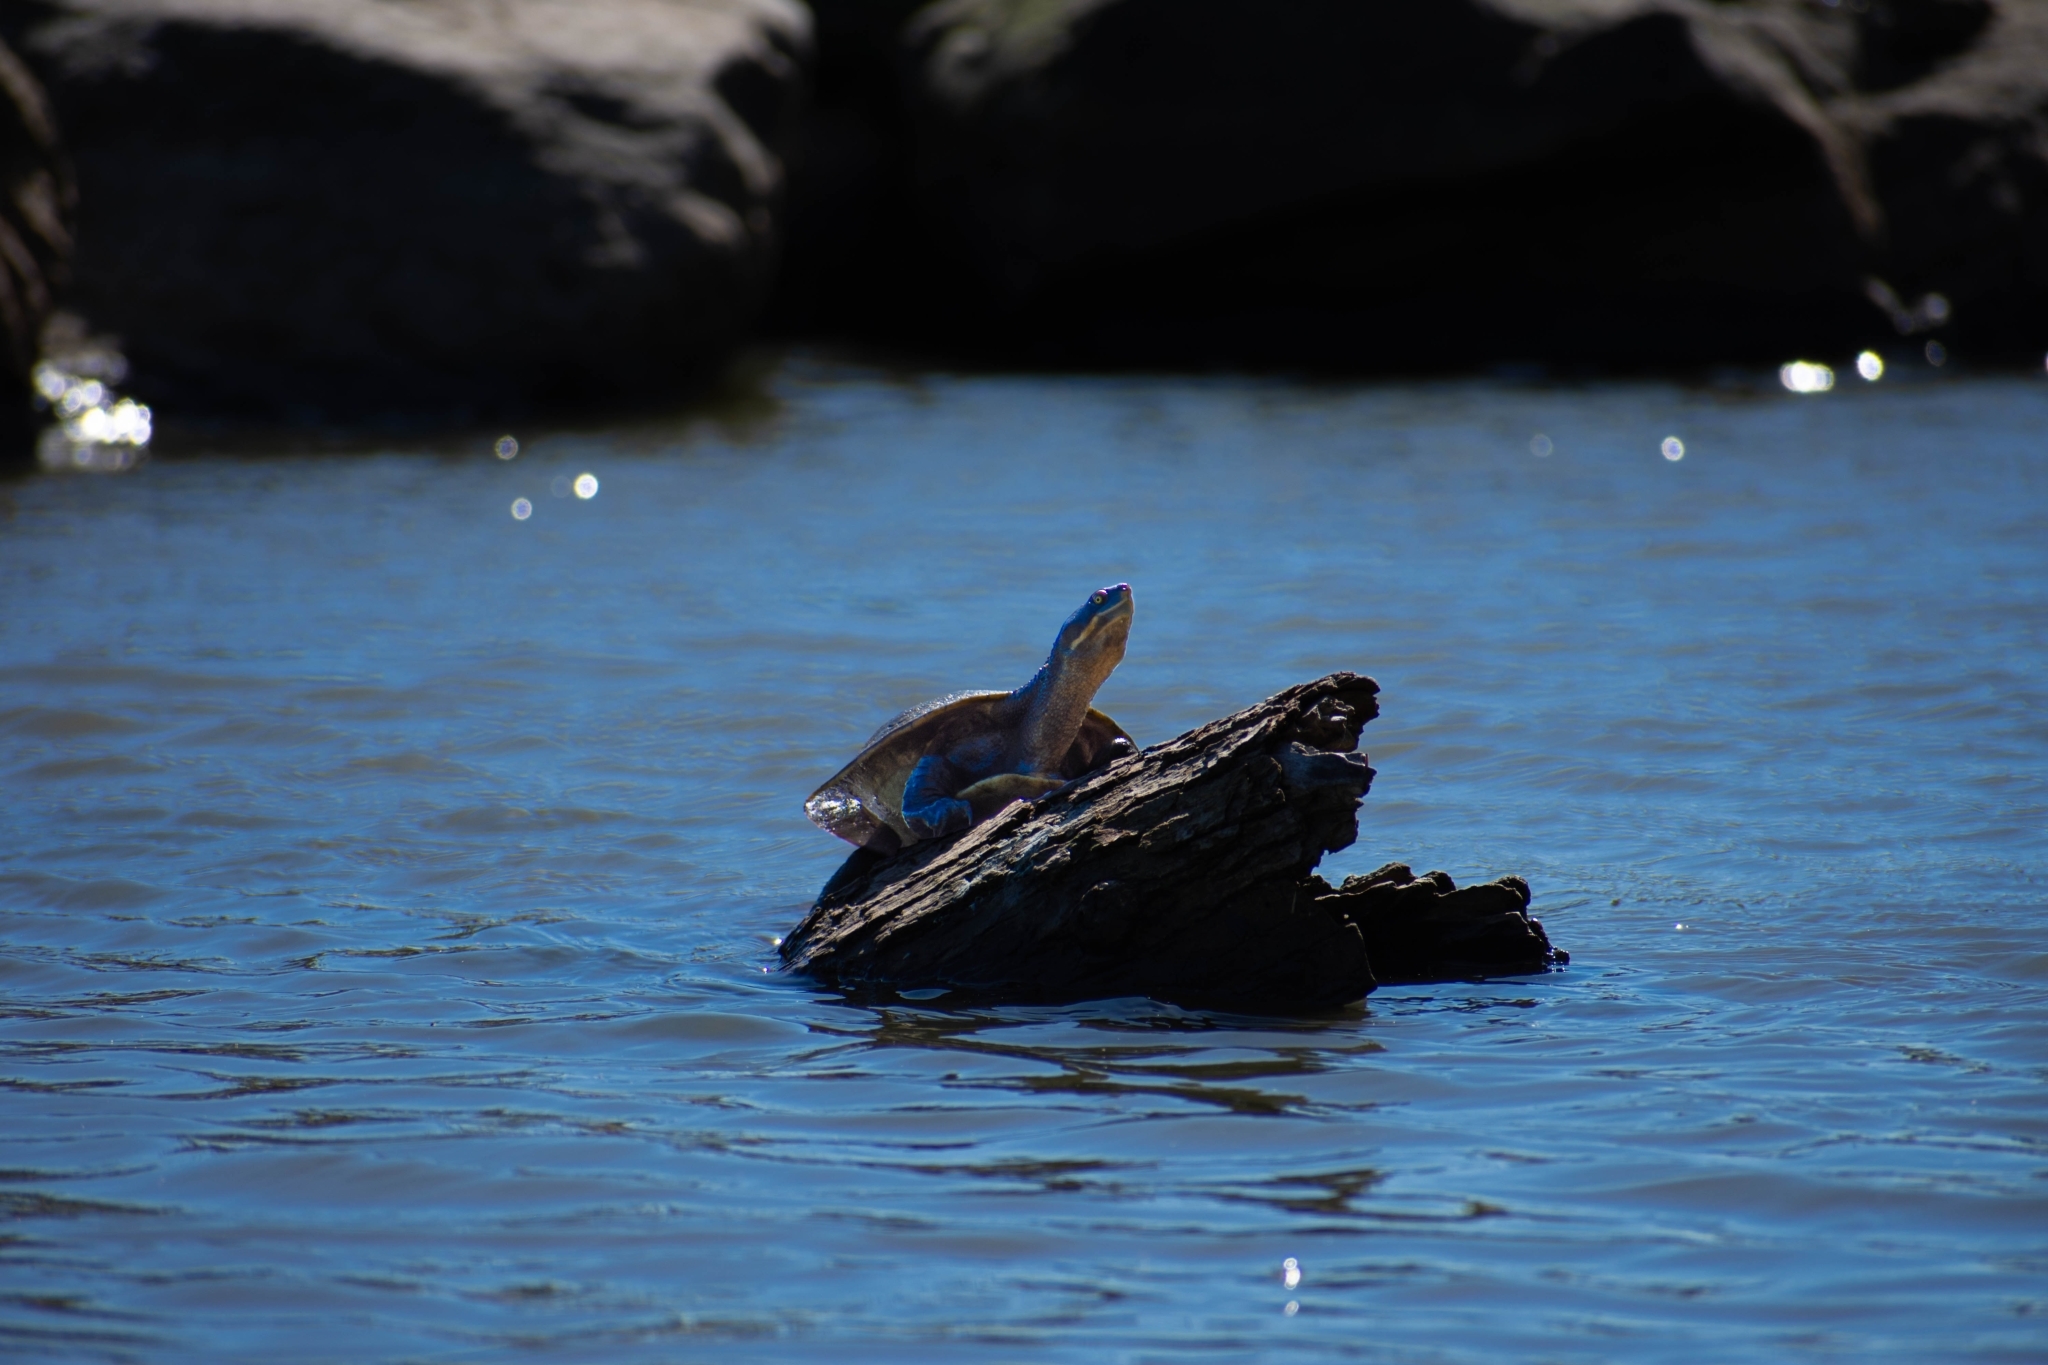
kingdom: Animalia
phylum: Chordata
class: Testudines
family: Chelidae
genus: Emydura
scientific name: Emydura macquarii
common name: Murray river turtle
